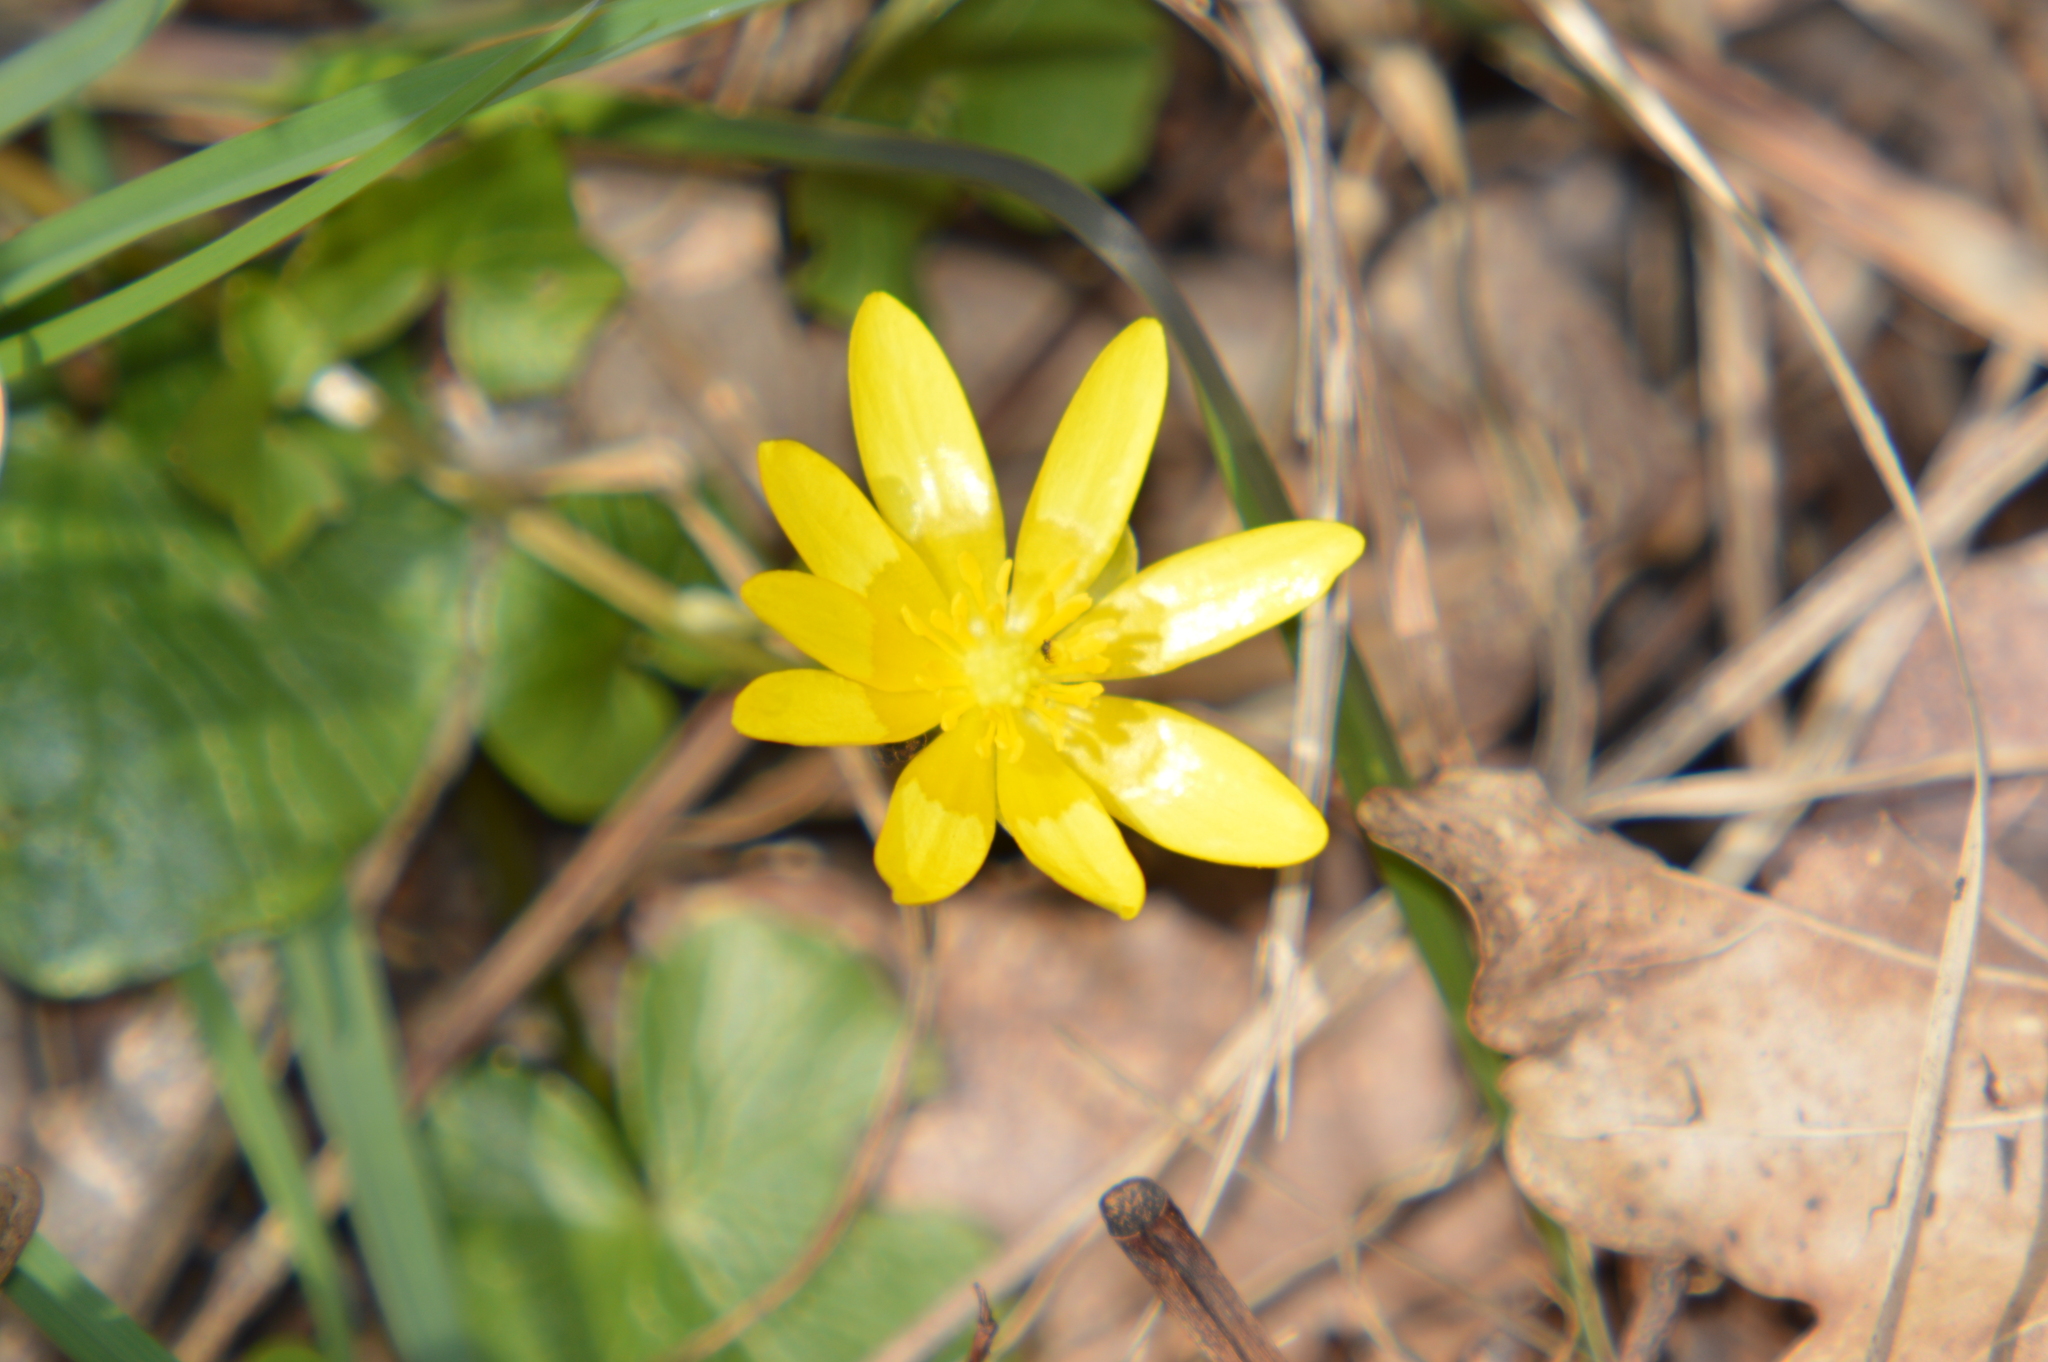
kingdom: Plantae
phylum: Tracheophyta
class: Magnoliopsida
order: Ranunculales
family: Ranunculaceae
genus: Ficaria
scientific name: Ficaria verna
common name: Lesser celandine
